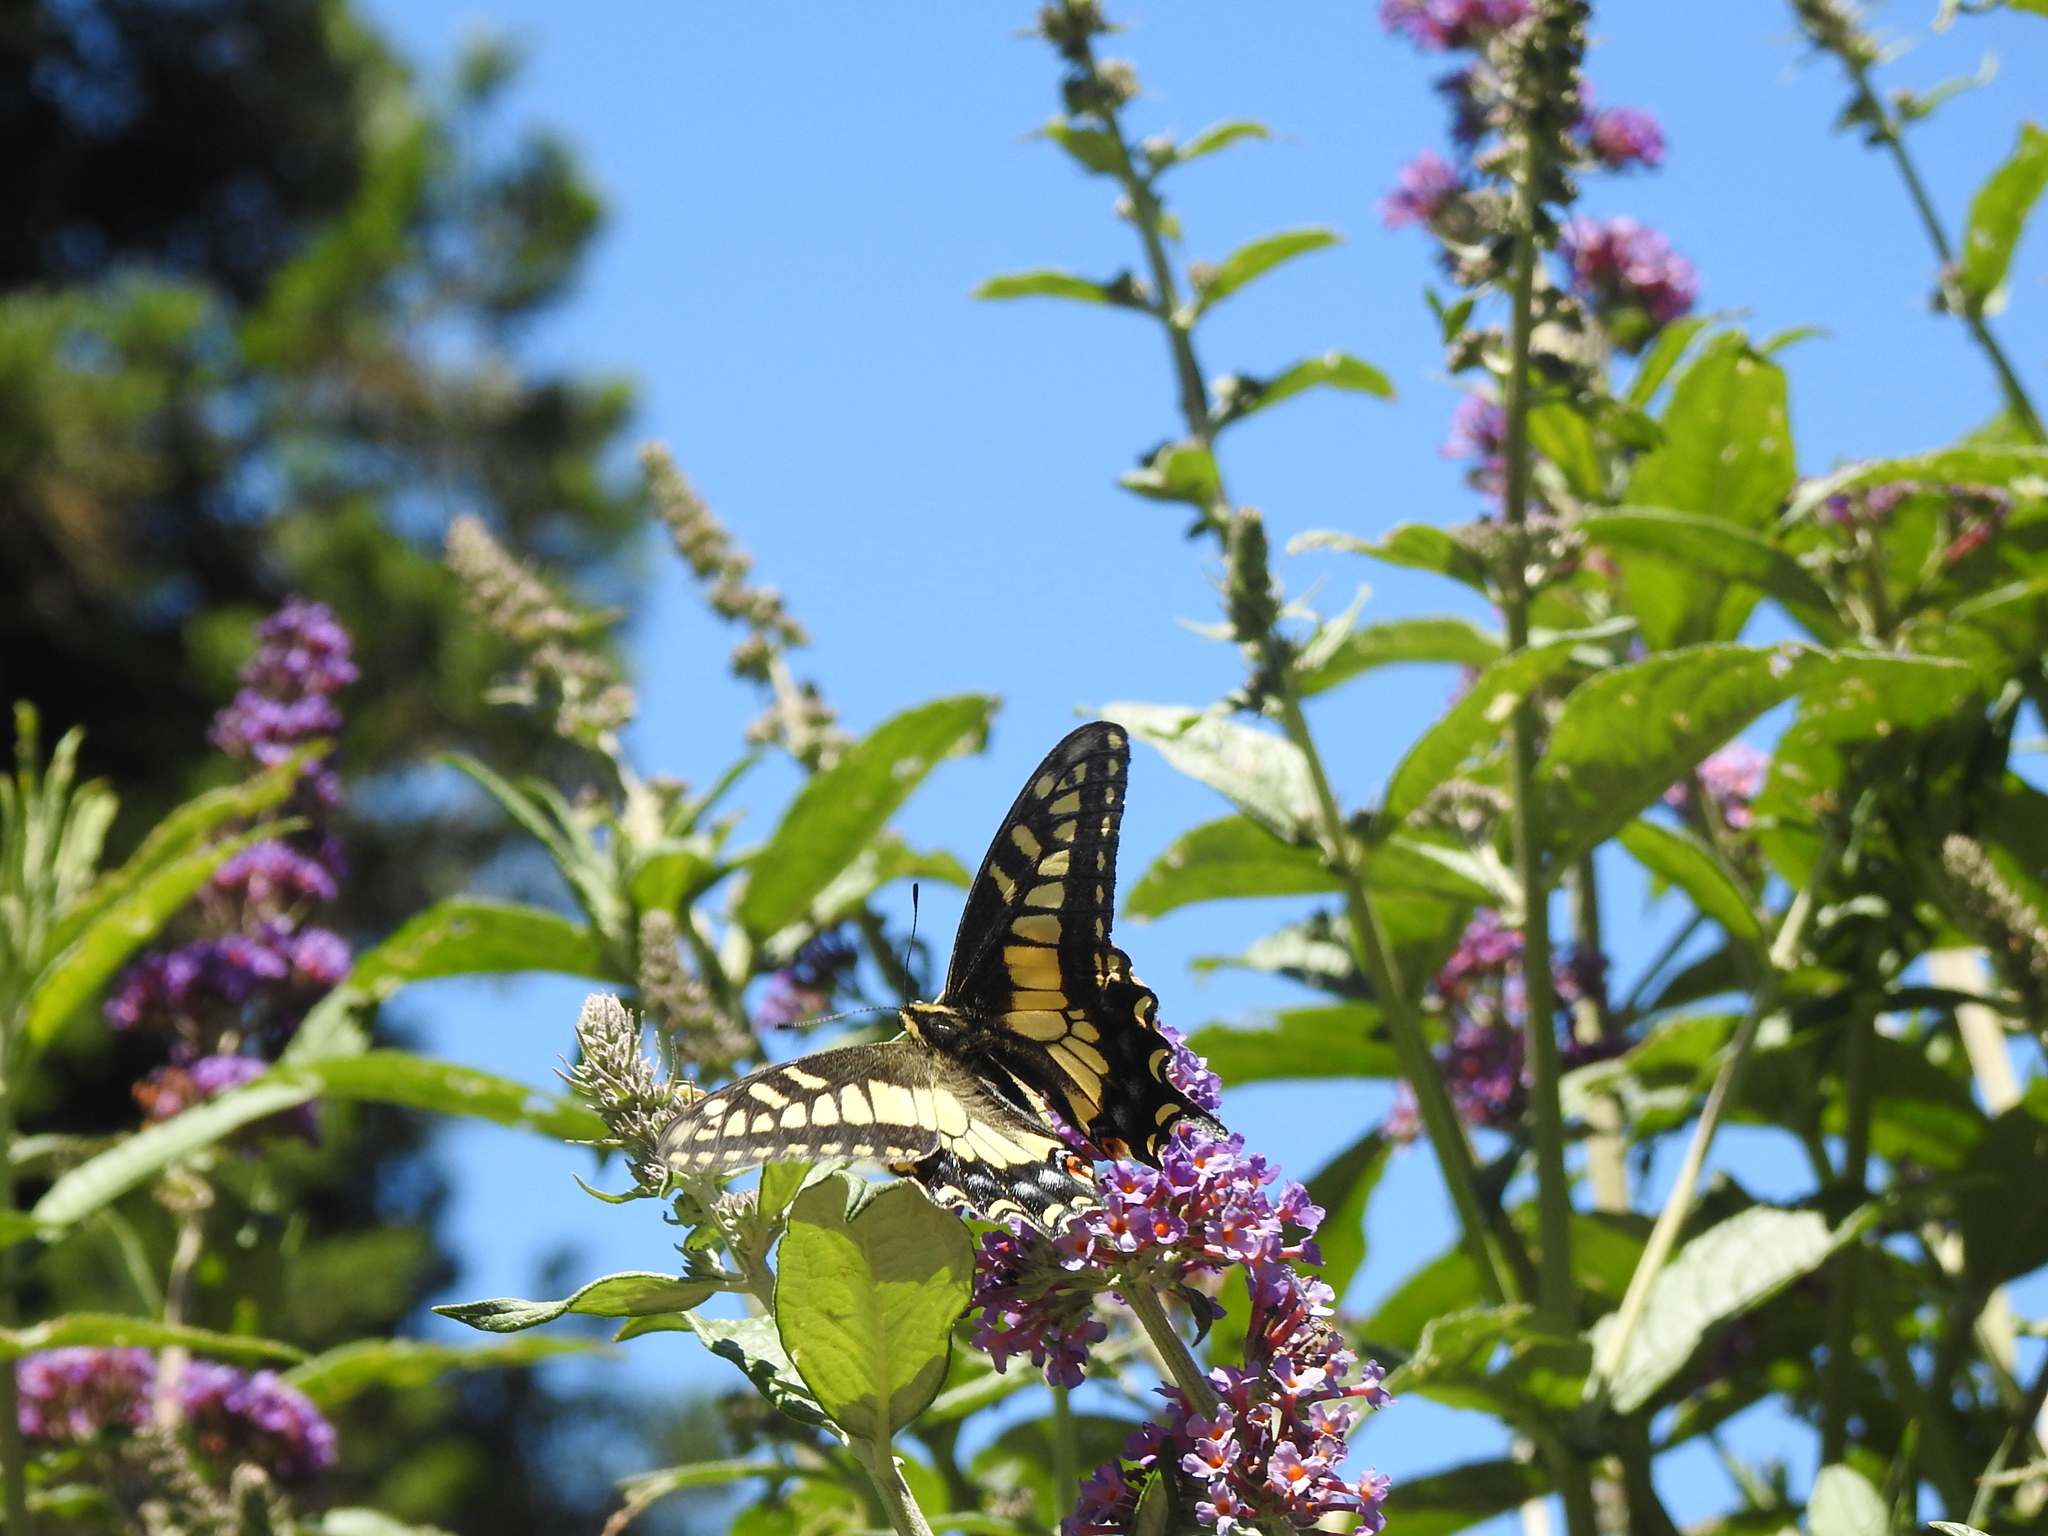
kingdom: Animalia
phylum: Arthropoda
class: Insecta
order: Lepidoptera
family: Papilionidae
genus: Papilio
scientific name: Papilio zelicaon
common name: Anise swallowtail
